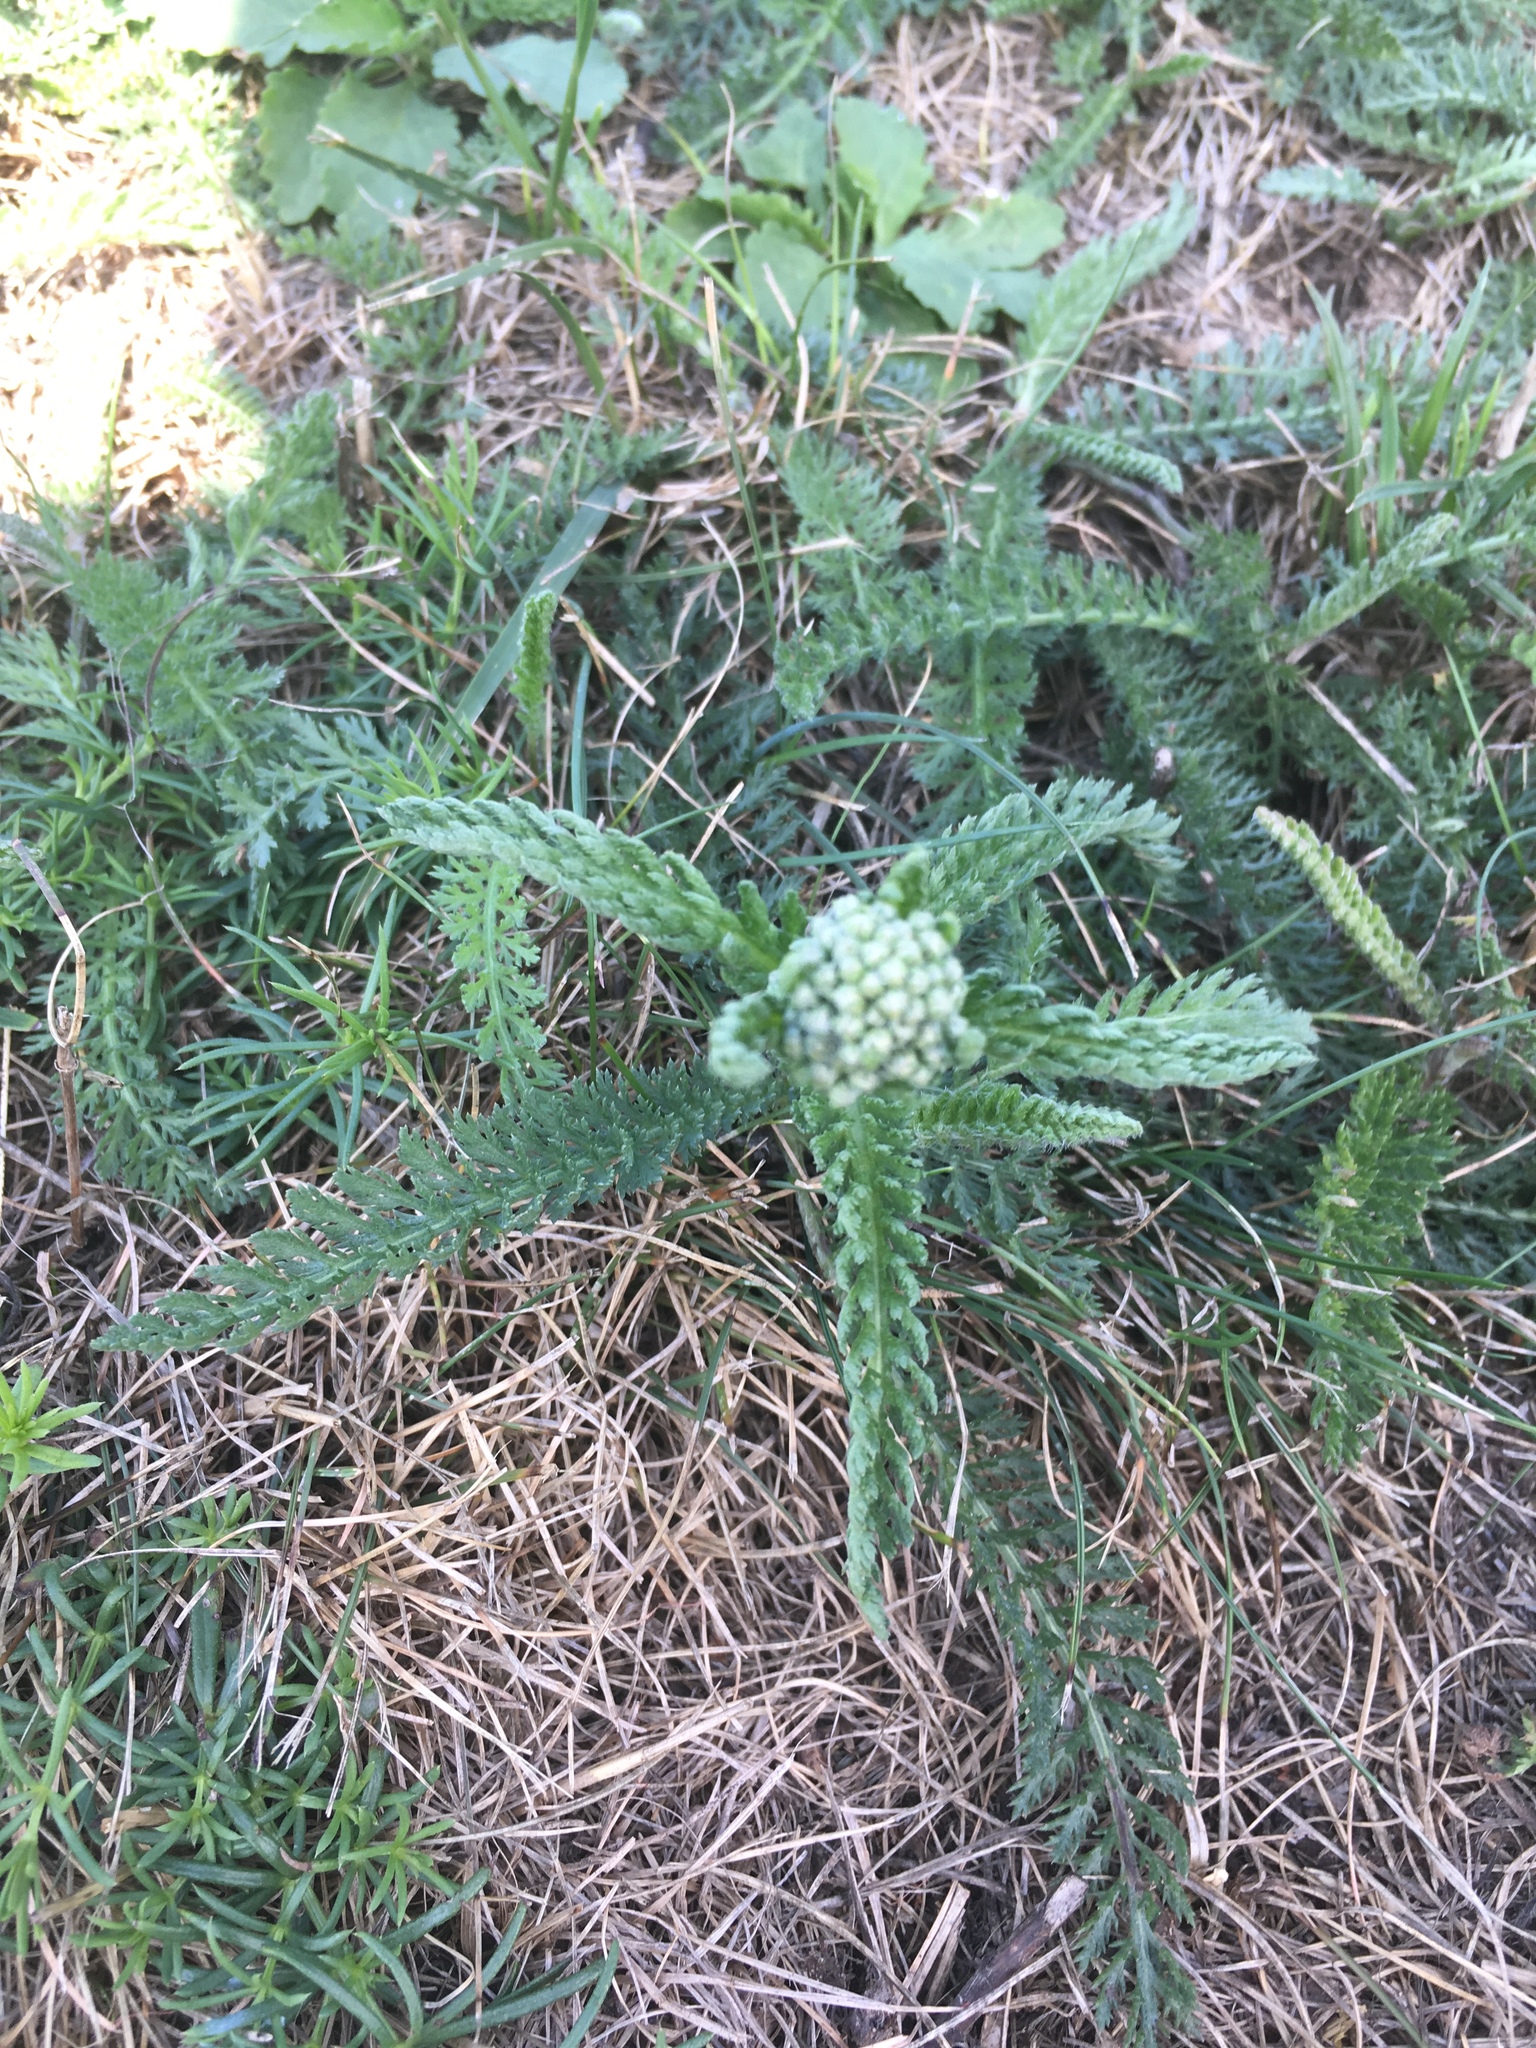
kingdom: Plantae
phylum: Tracheophyta
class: Magnoliopsida
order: Asterales
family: Asteraceae
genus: Achillea
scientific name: Achillea millefolium
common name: Yarrow
